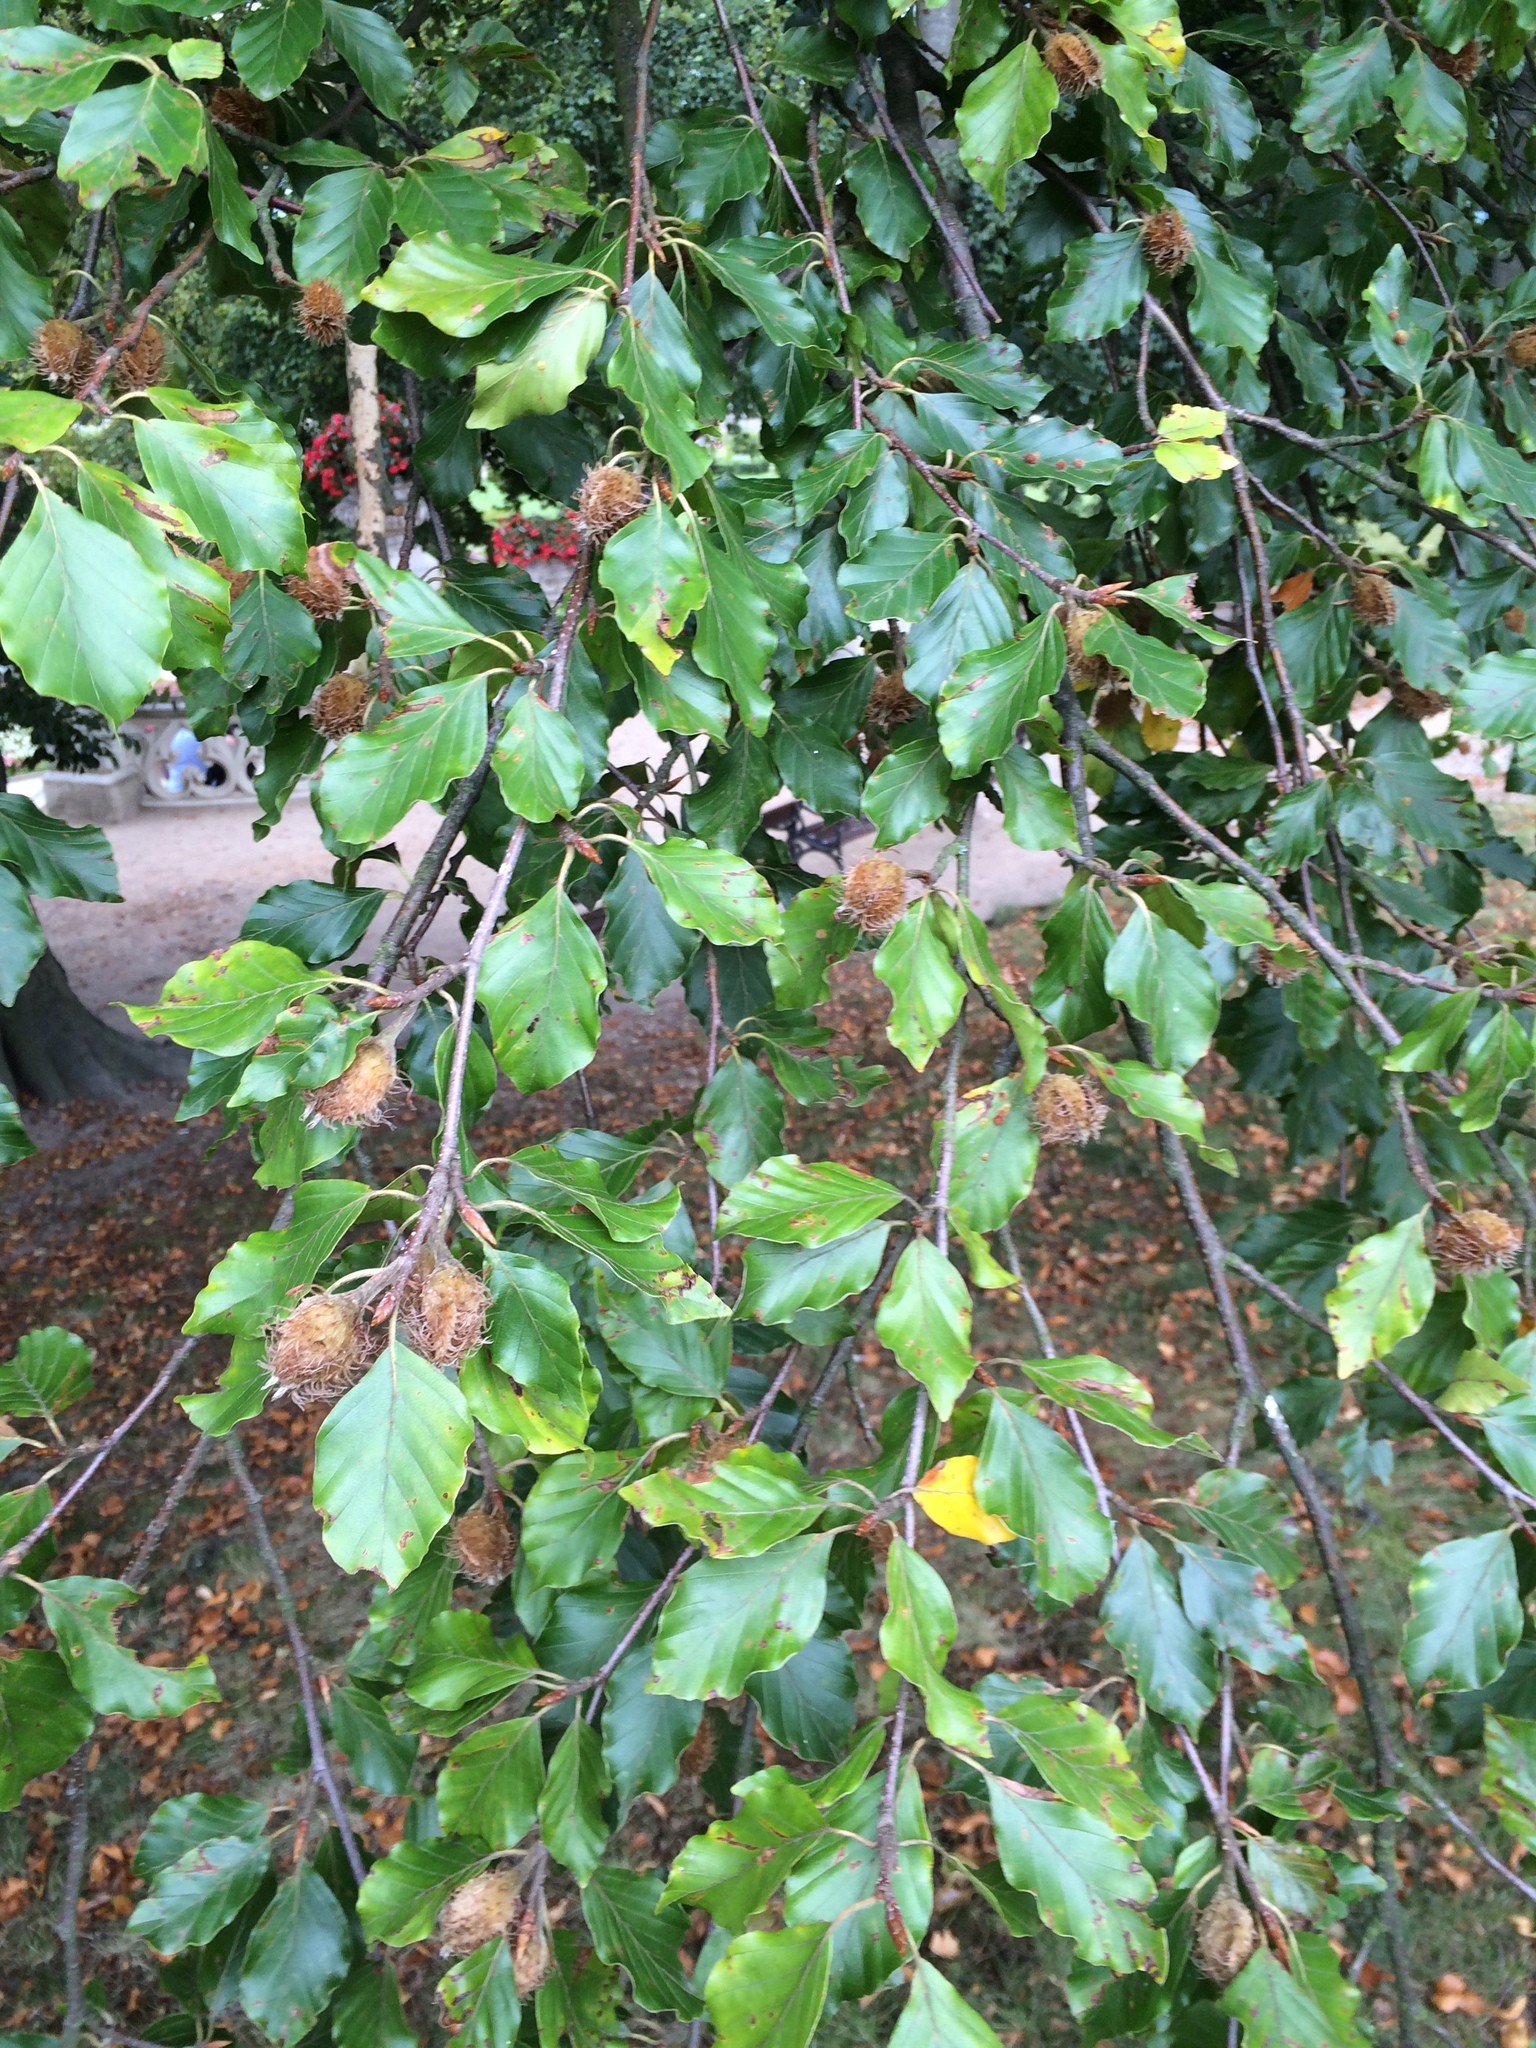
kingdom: Plantae
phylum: Tracheophyta
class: Magnoliopsida
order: Fagales
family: Fagaceae
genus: Fagus
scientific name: Fagus sylvatica
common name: Beech
